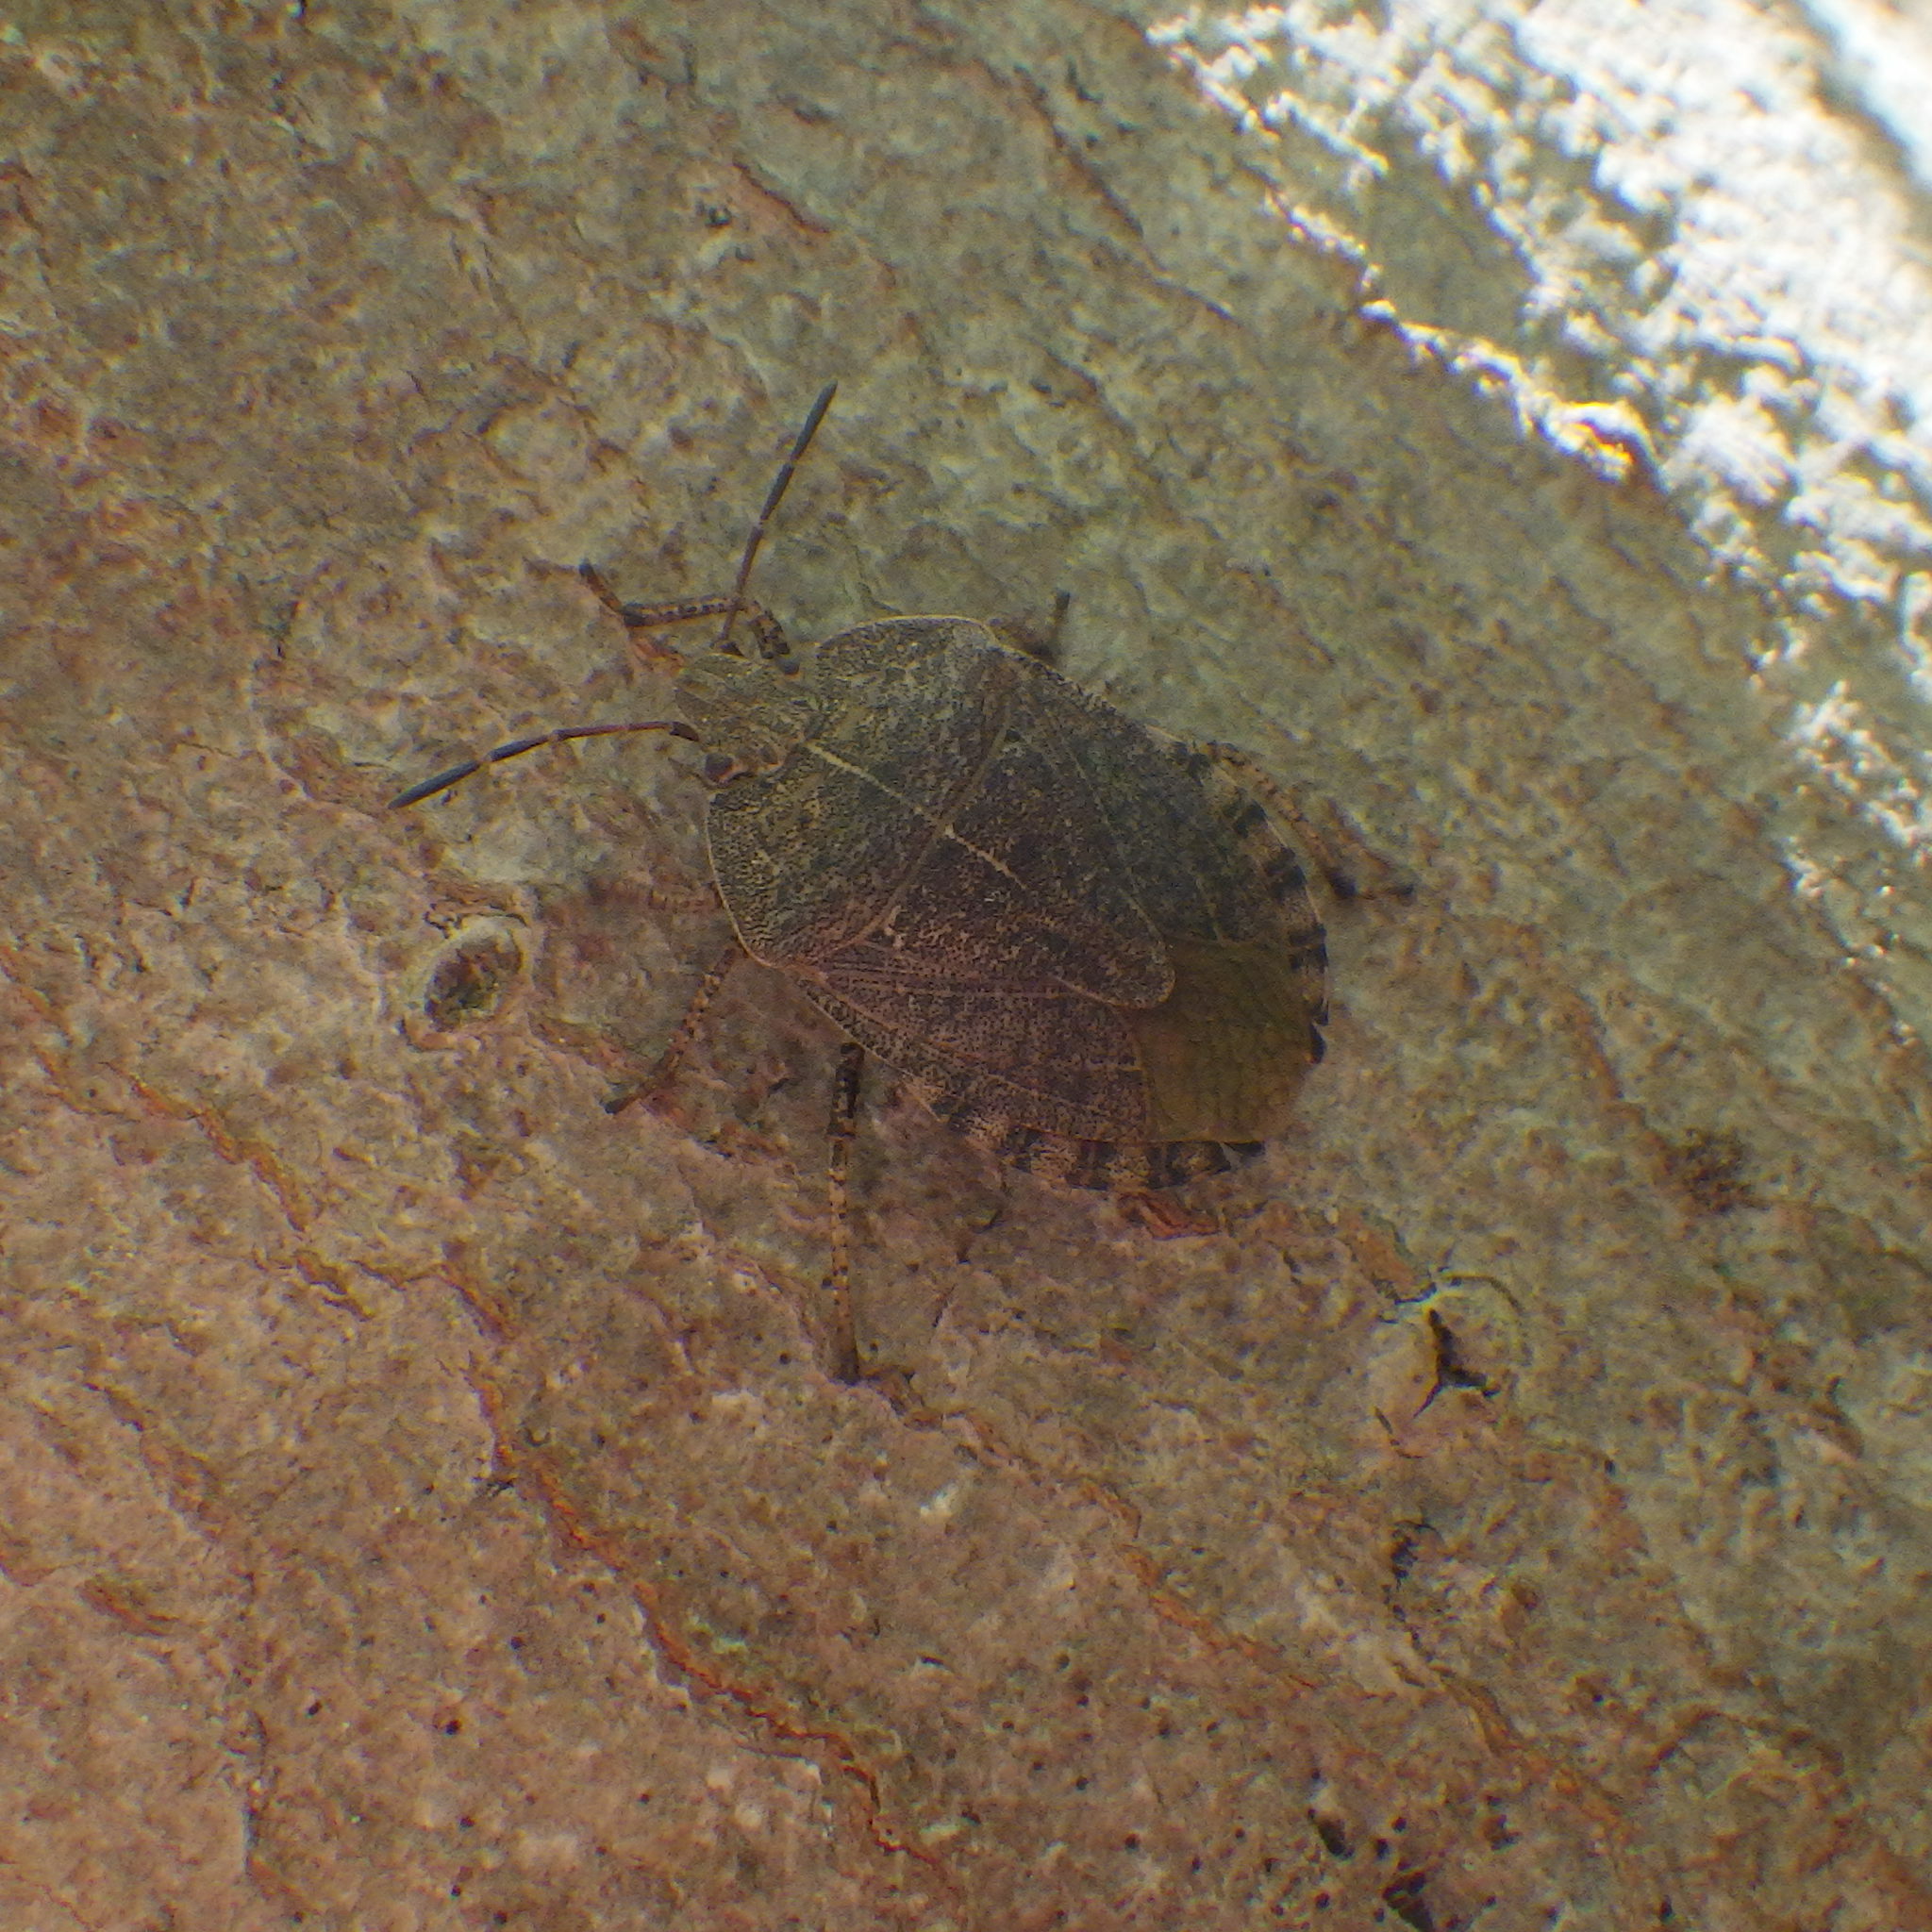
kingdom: Animalia
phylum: Arthropoda
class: Insecta
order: Hemiptera
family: Pentatomidae
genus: Menecles
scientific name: Menecles insertus
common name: Elf shoe stink bug
